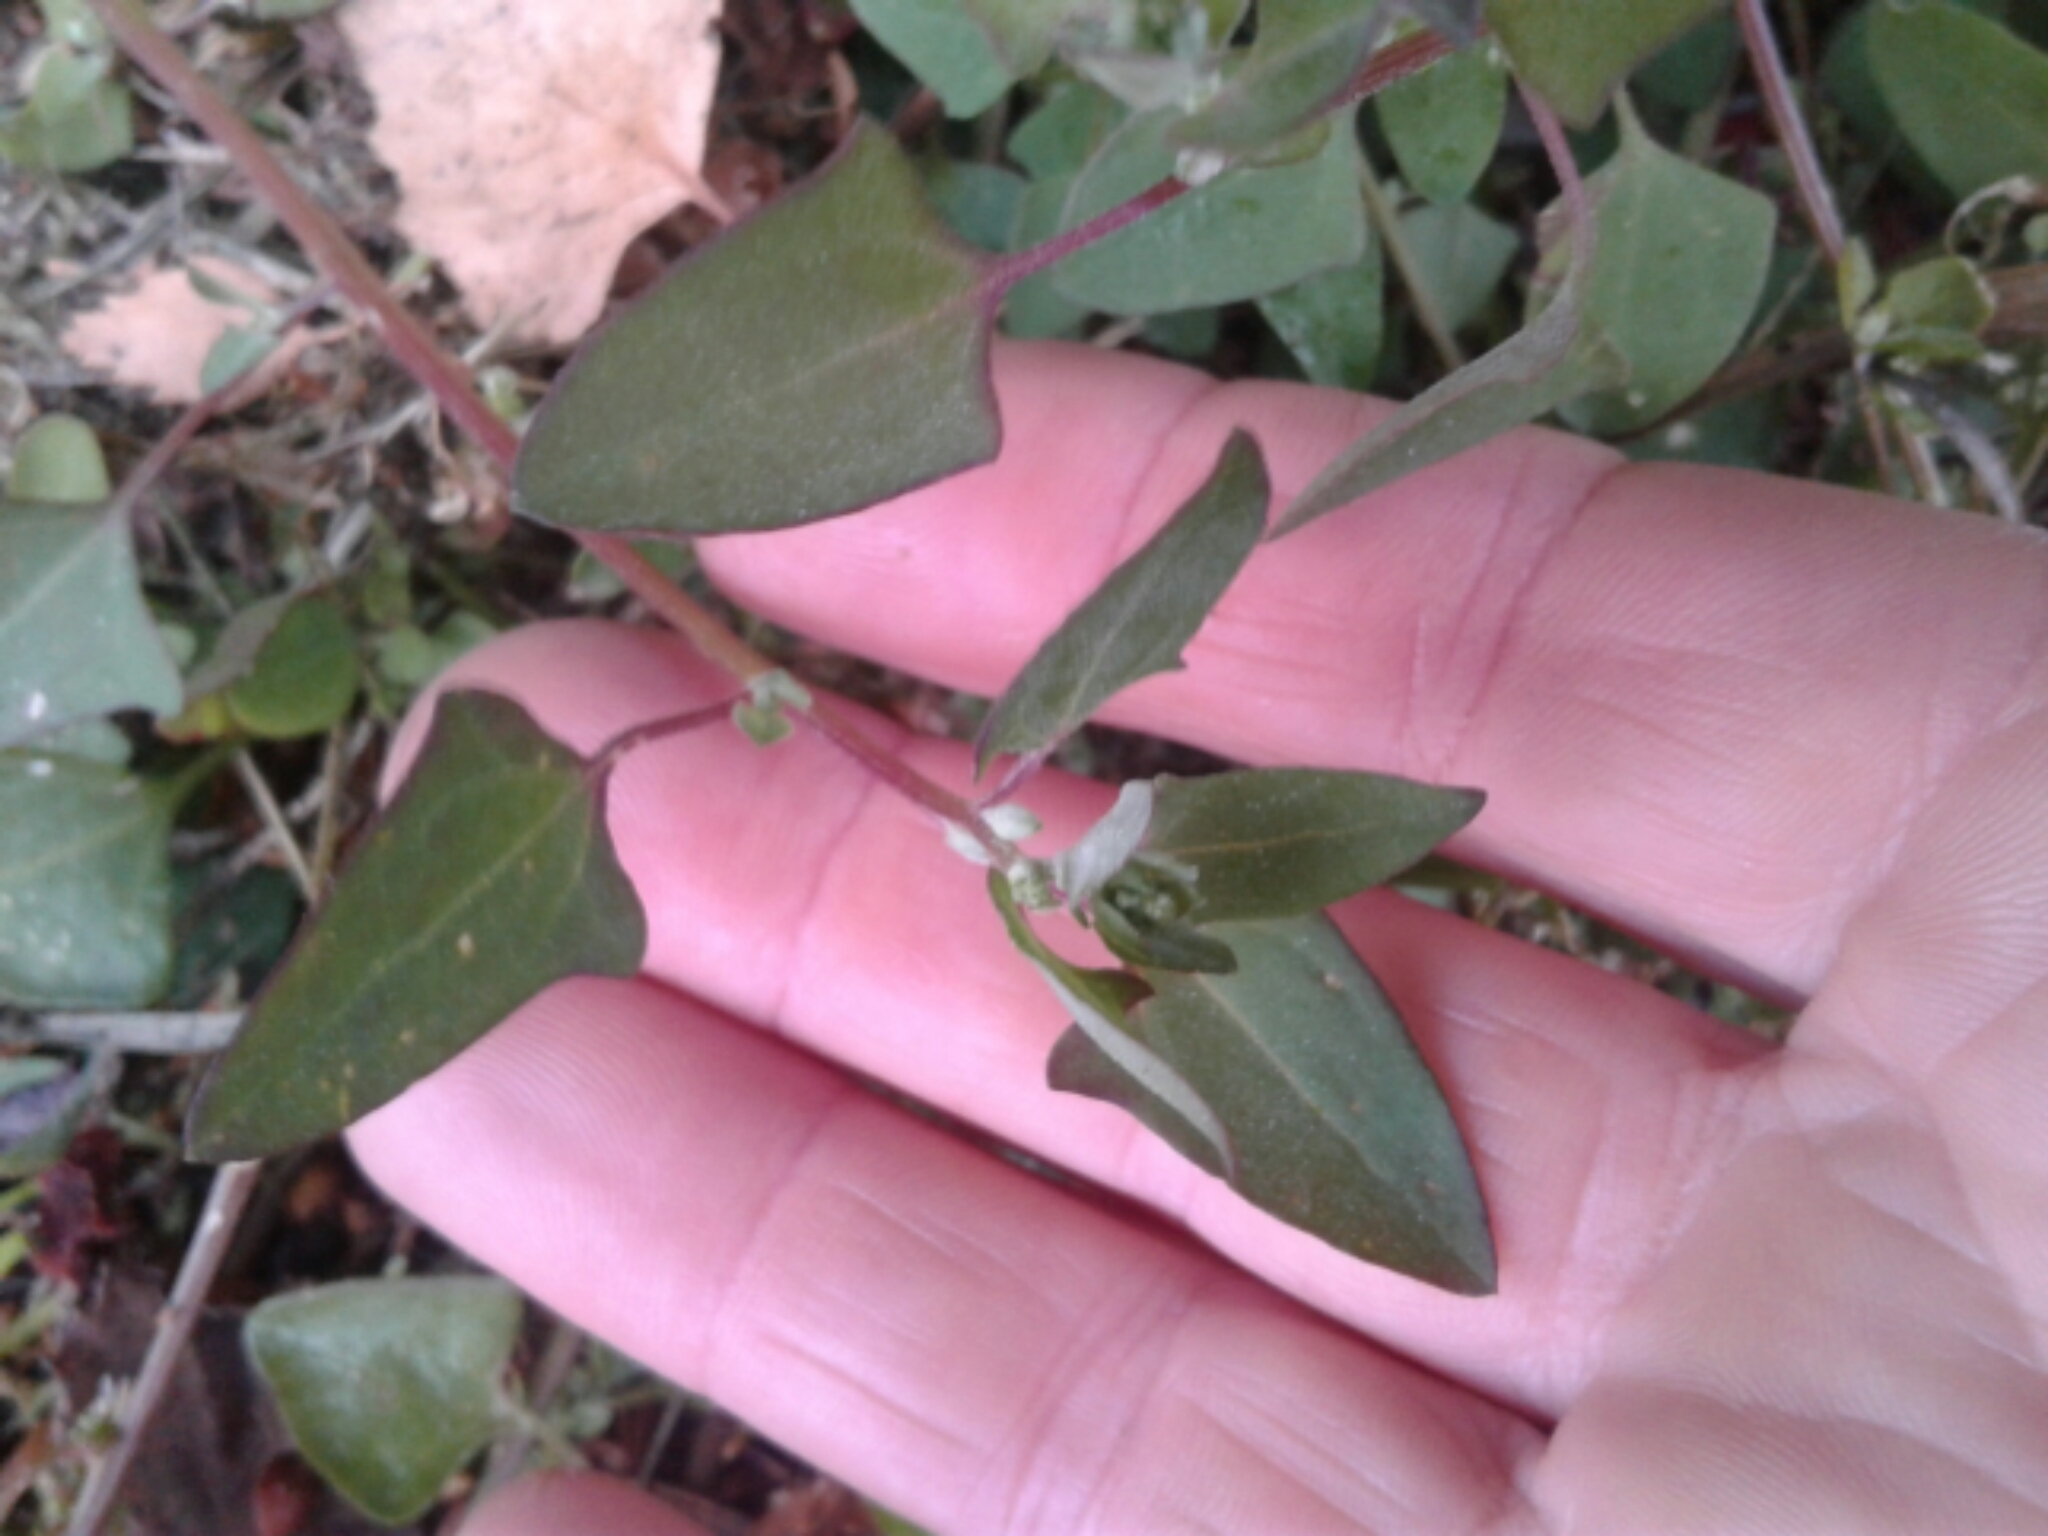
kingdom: Plantae
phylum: Tracheophyta
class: Magnoliopsida
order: Caryophyllales
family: Amaranthaceae
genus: Atriplex
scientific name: Atriplex prostrata
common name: Spear-leaved orache
